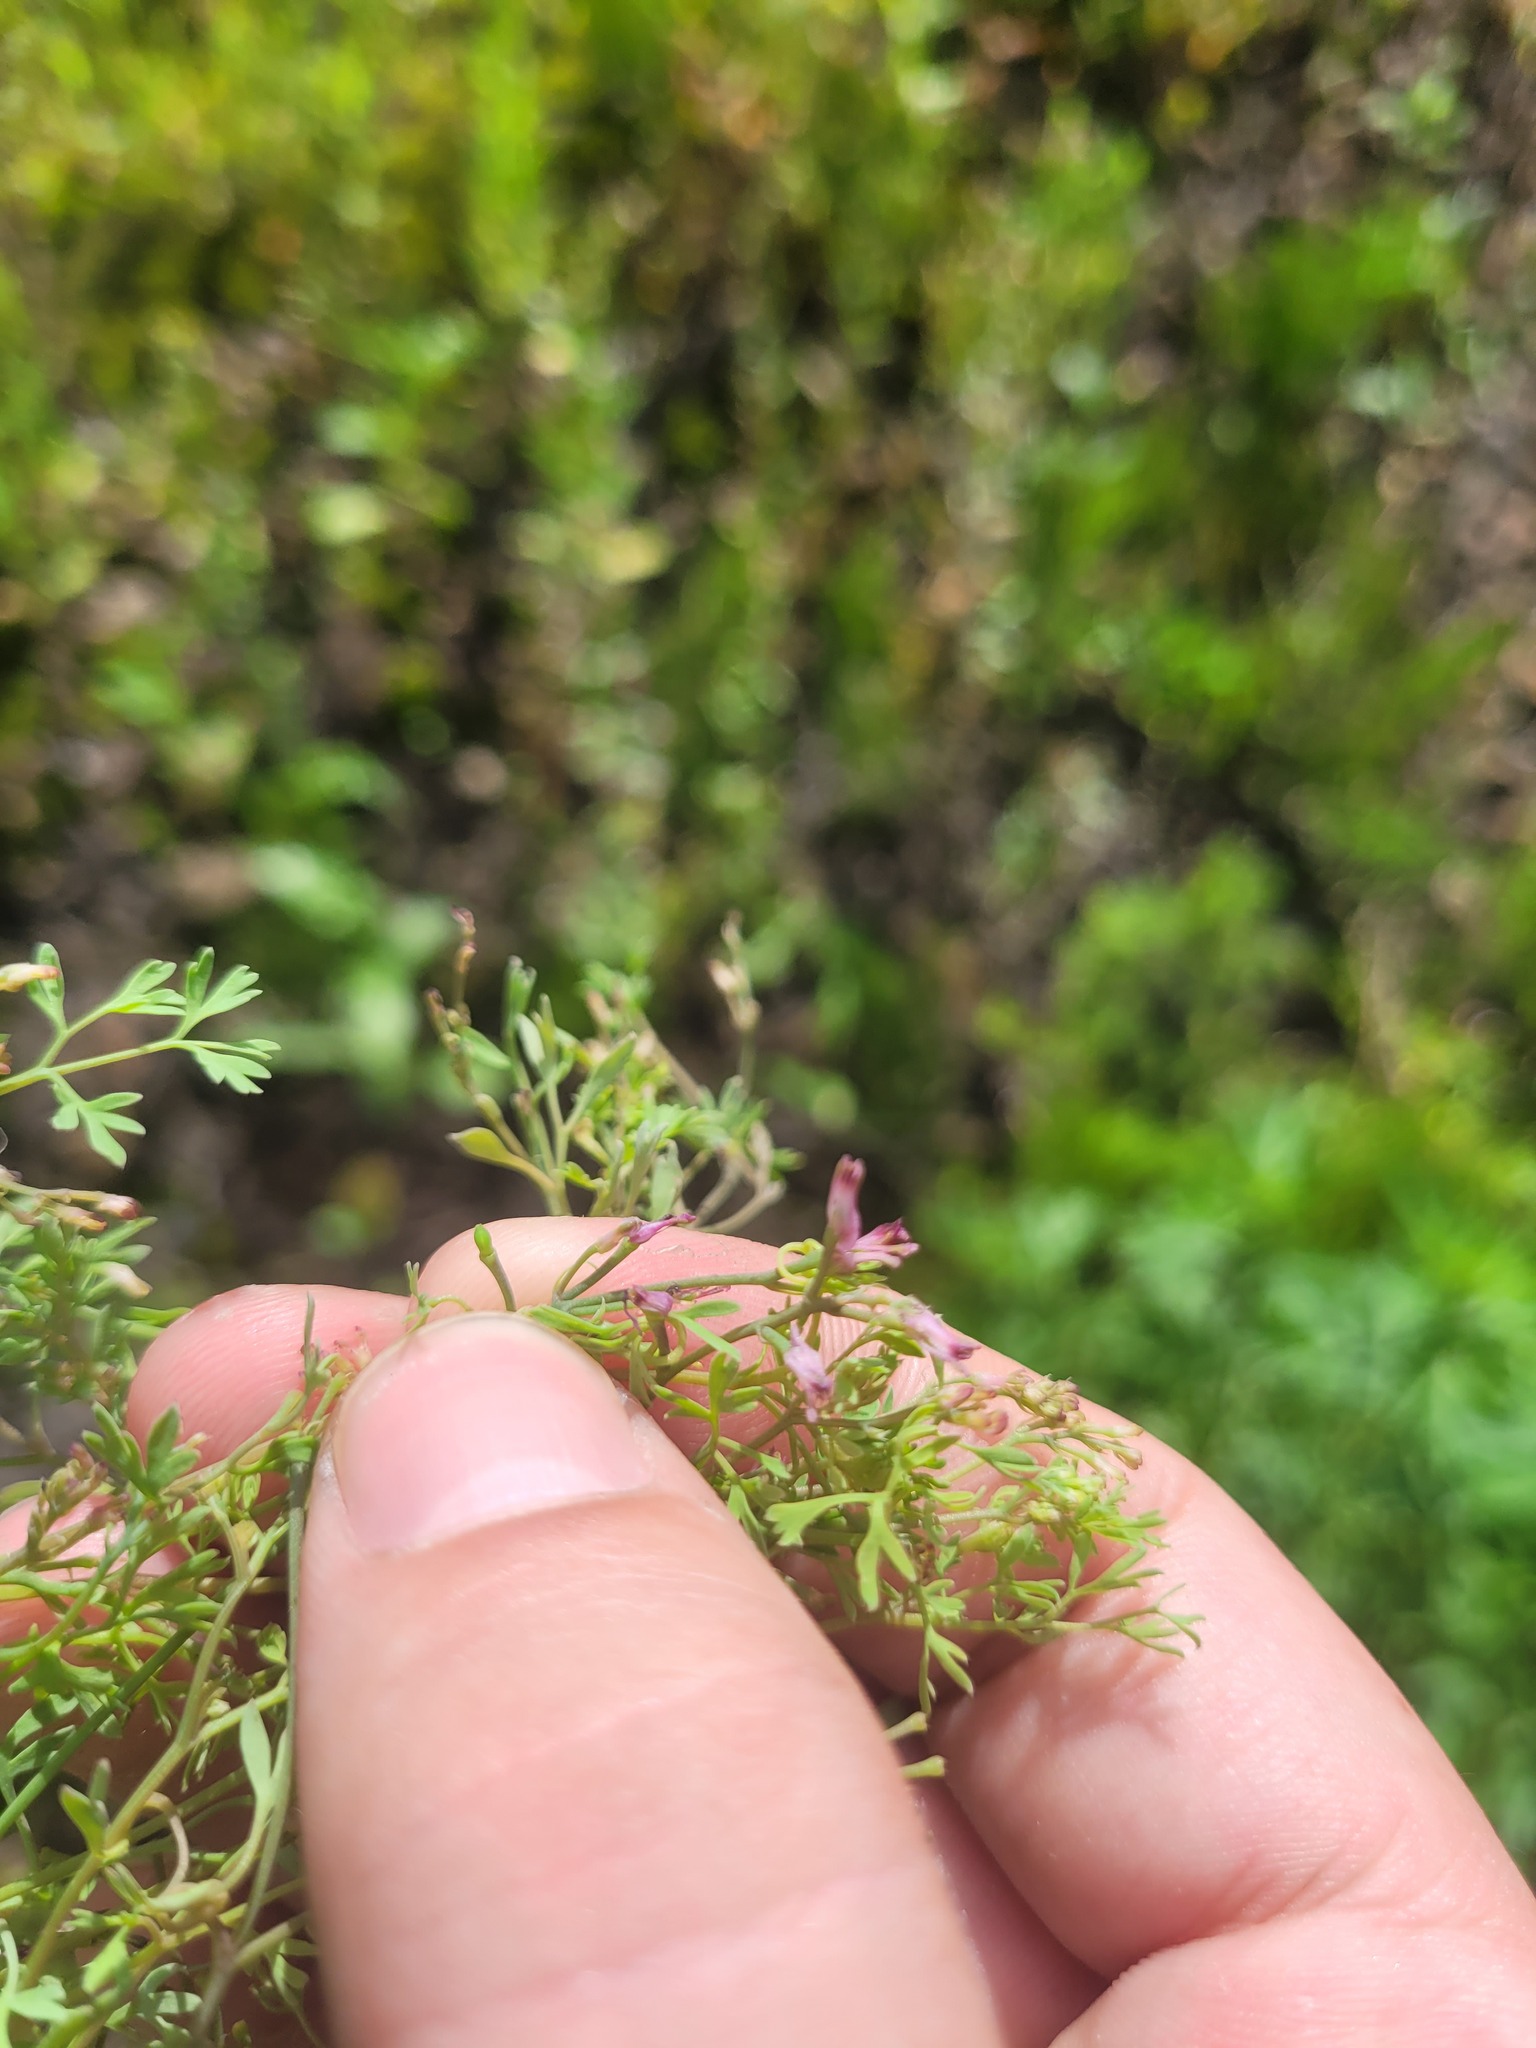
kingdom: Plantae
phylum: Tracheophyta
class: Magnoliopsida
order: Ranunculales
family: Papaveraceae
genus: Fumaria
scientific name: Fumaria schleicheri
